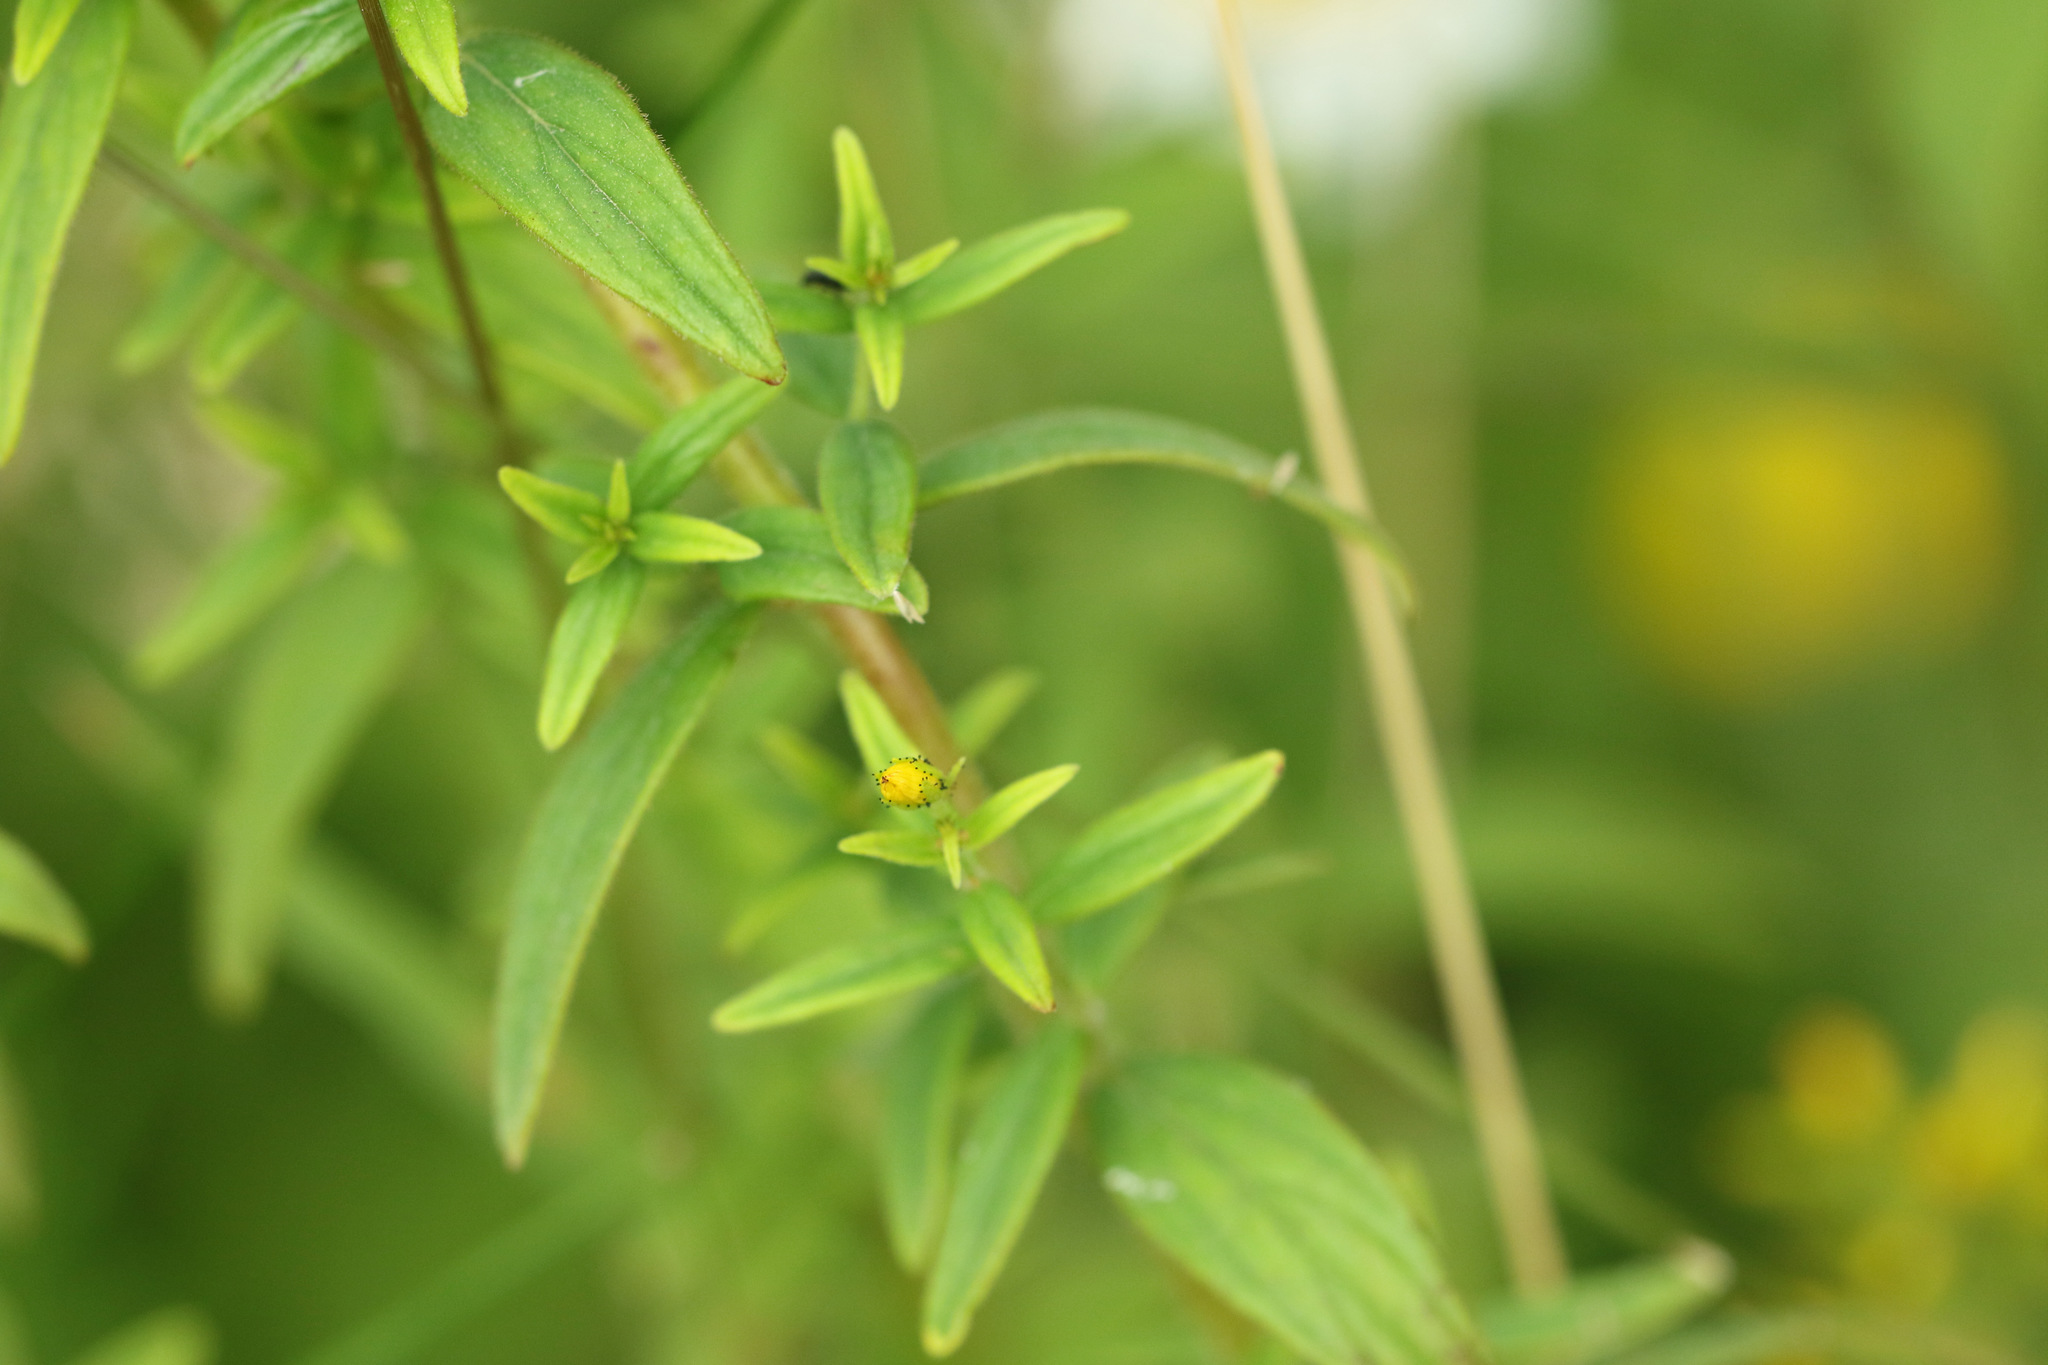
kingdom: Plantae
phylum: Tracheophyta
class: Magnoliopsida
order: Malpighiales
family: Hypericaceae
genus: Hypericum
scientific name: Hypericum hirsutum
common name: Hairy st. john's-wort
